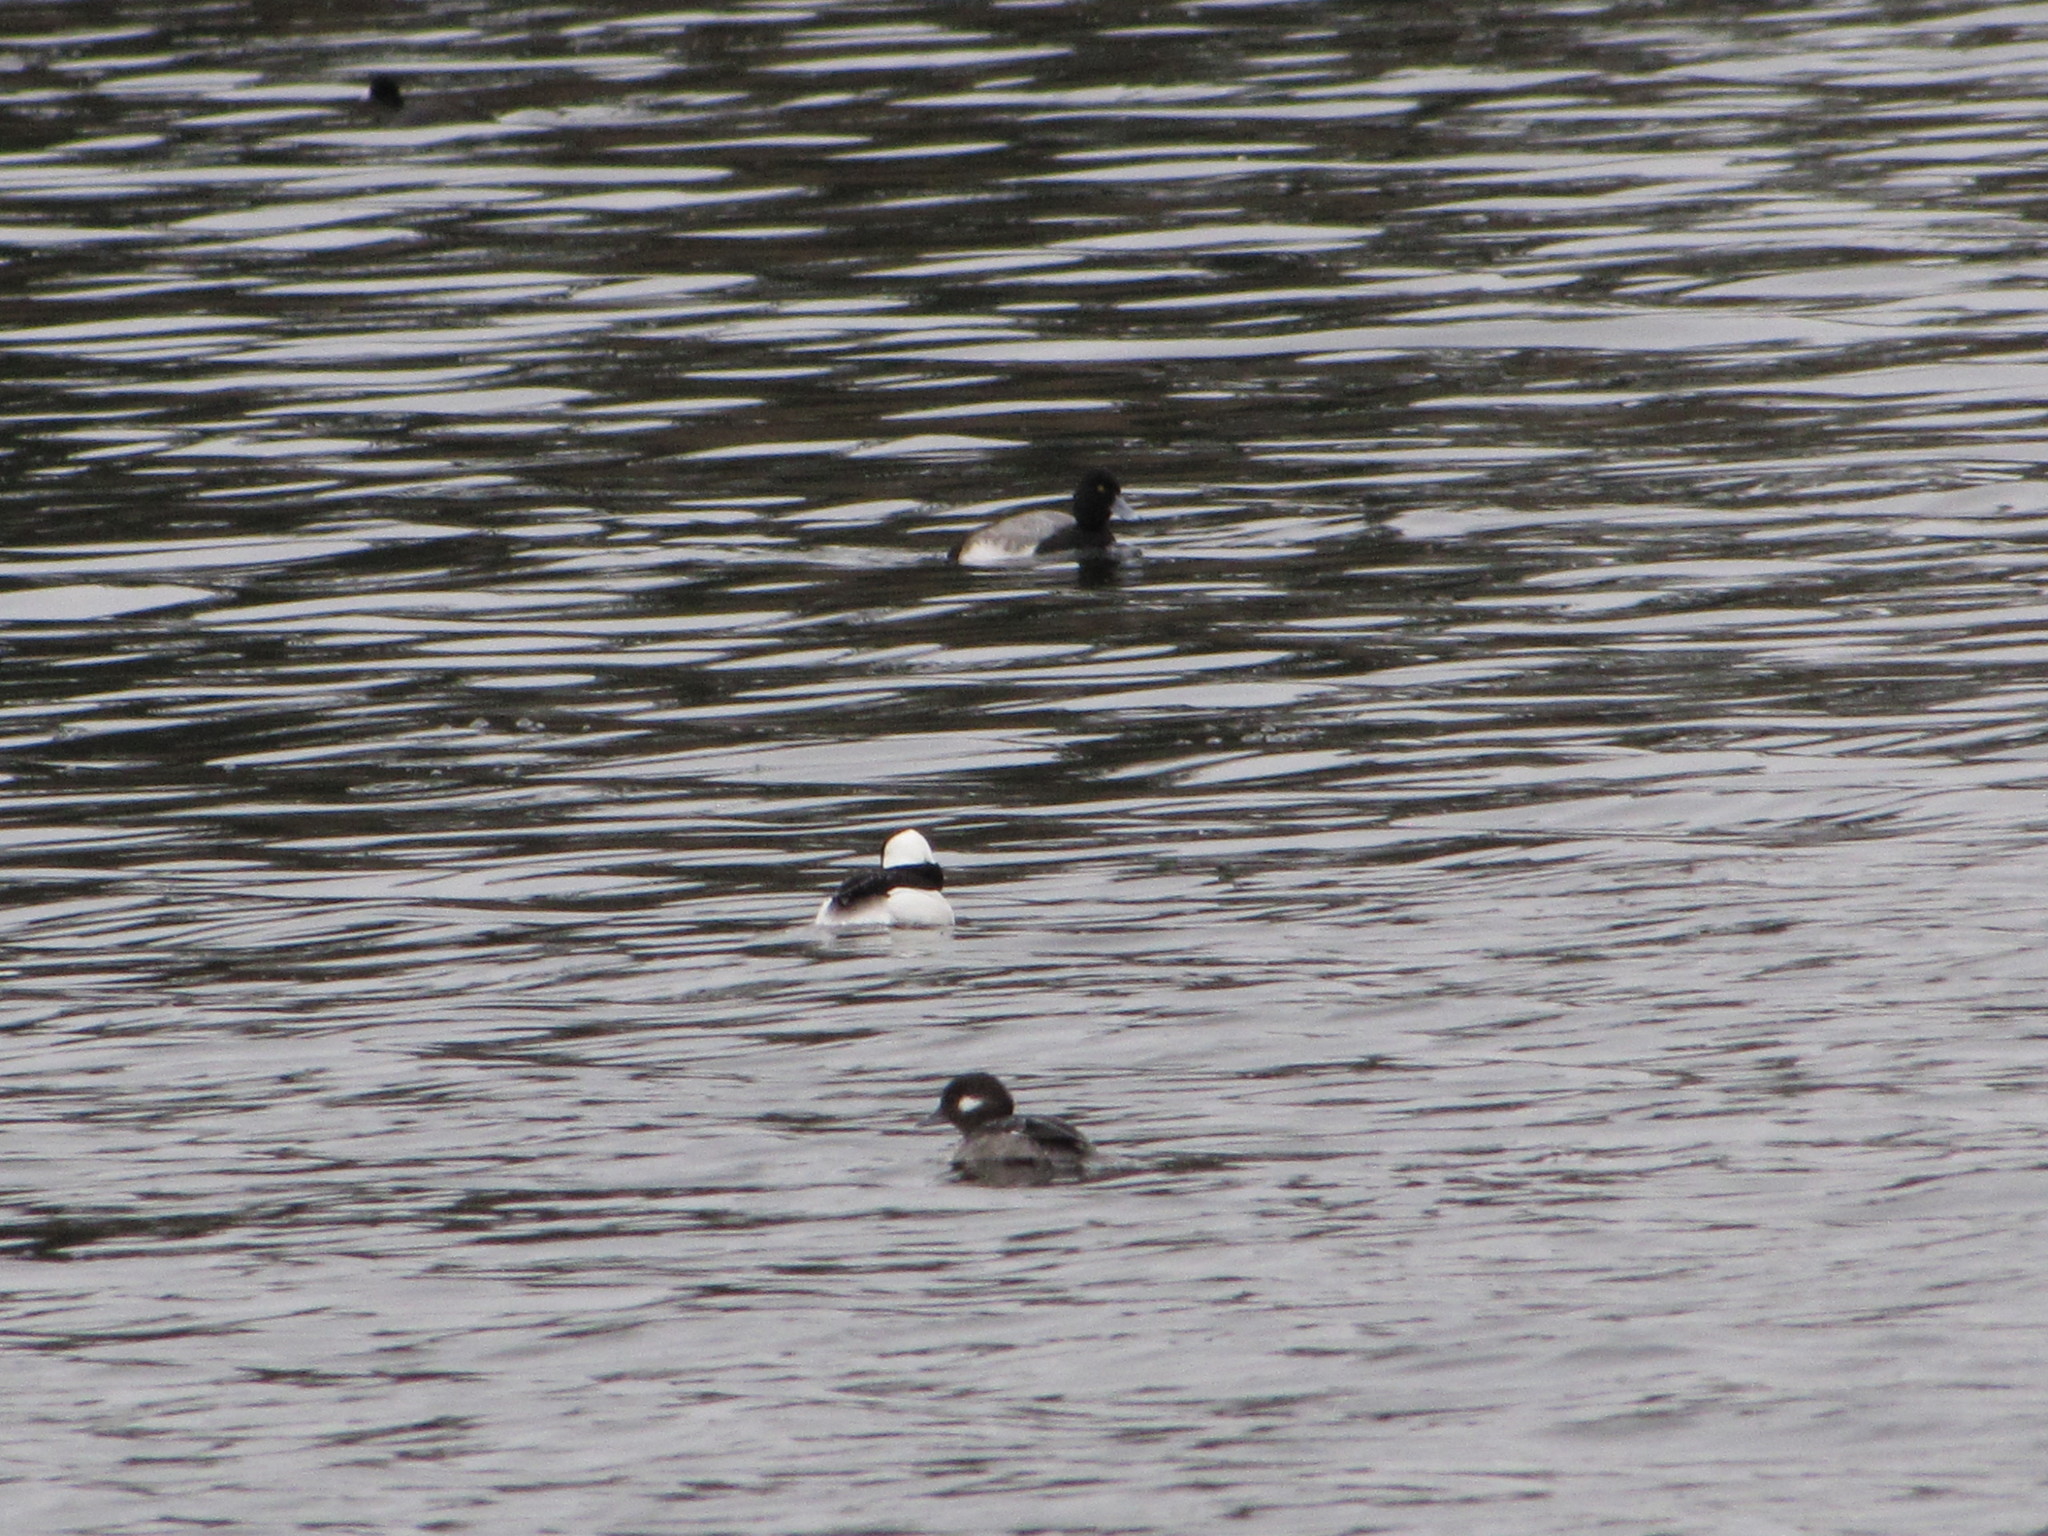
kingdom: Animalia
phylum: Chordata
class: Aves
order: Anseriformes
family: Anatidae
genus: Aythya
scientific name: Aythya affinis
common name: Lesser scaup
